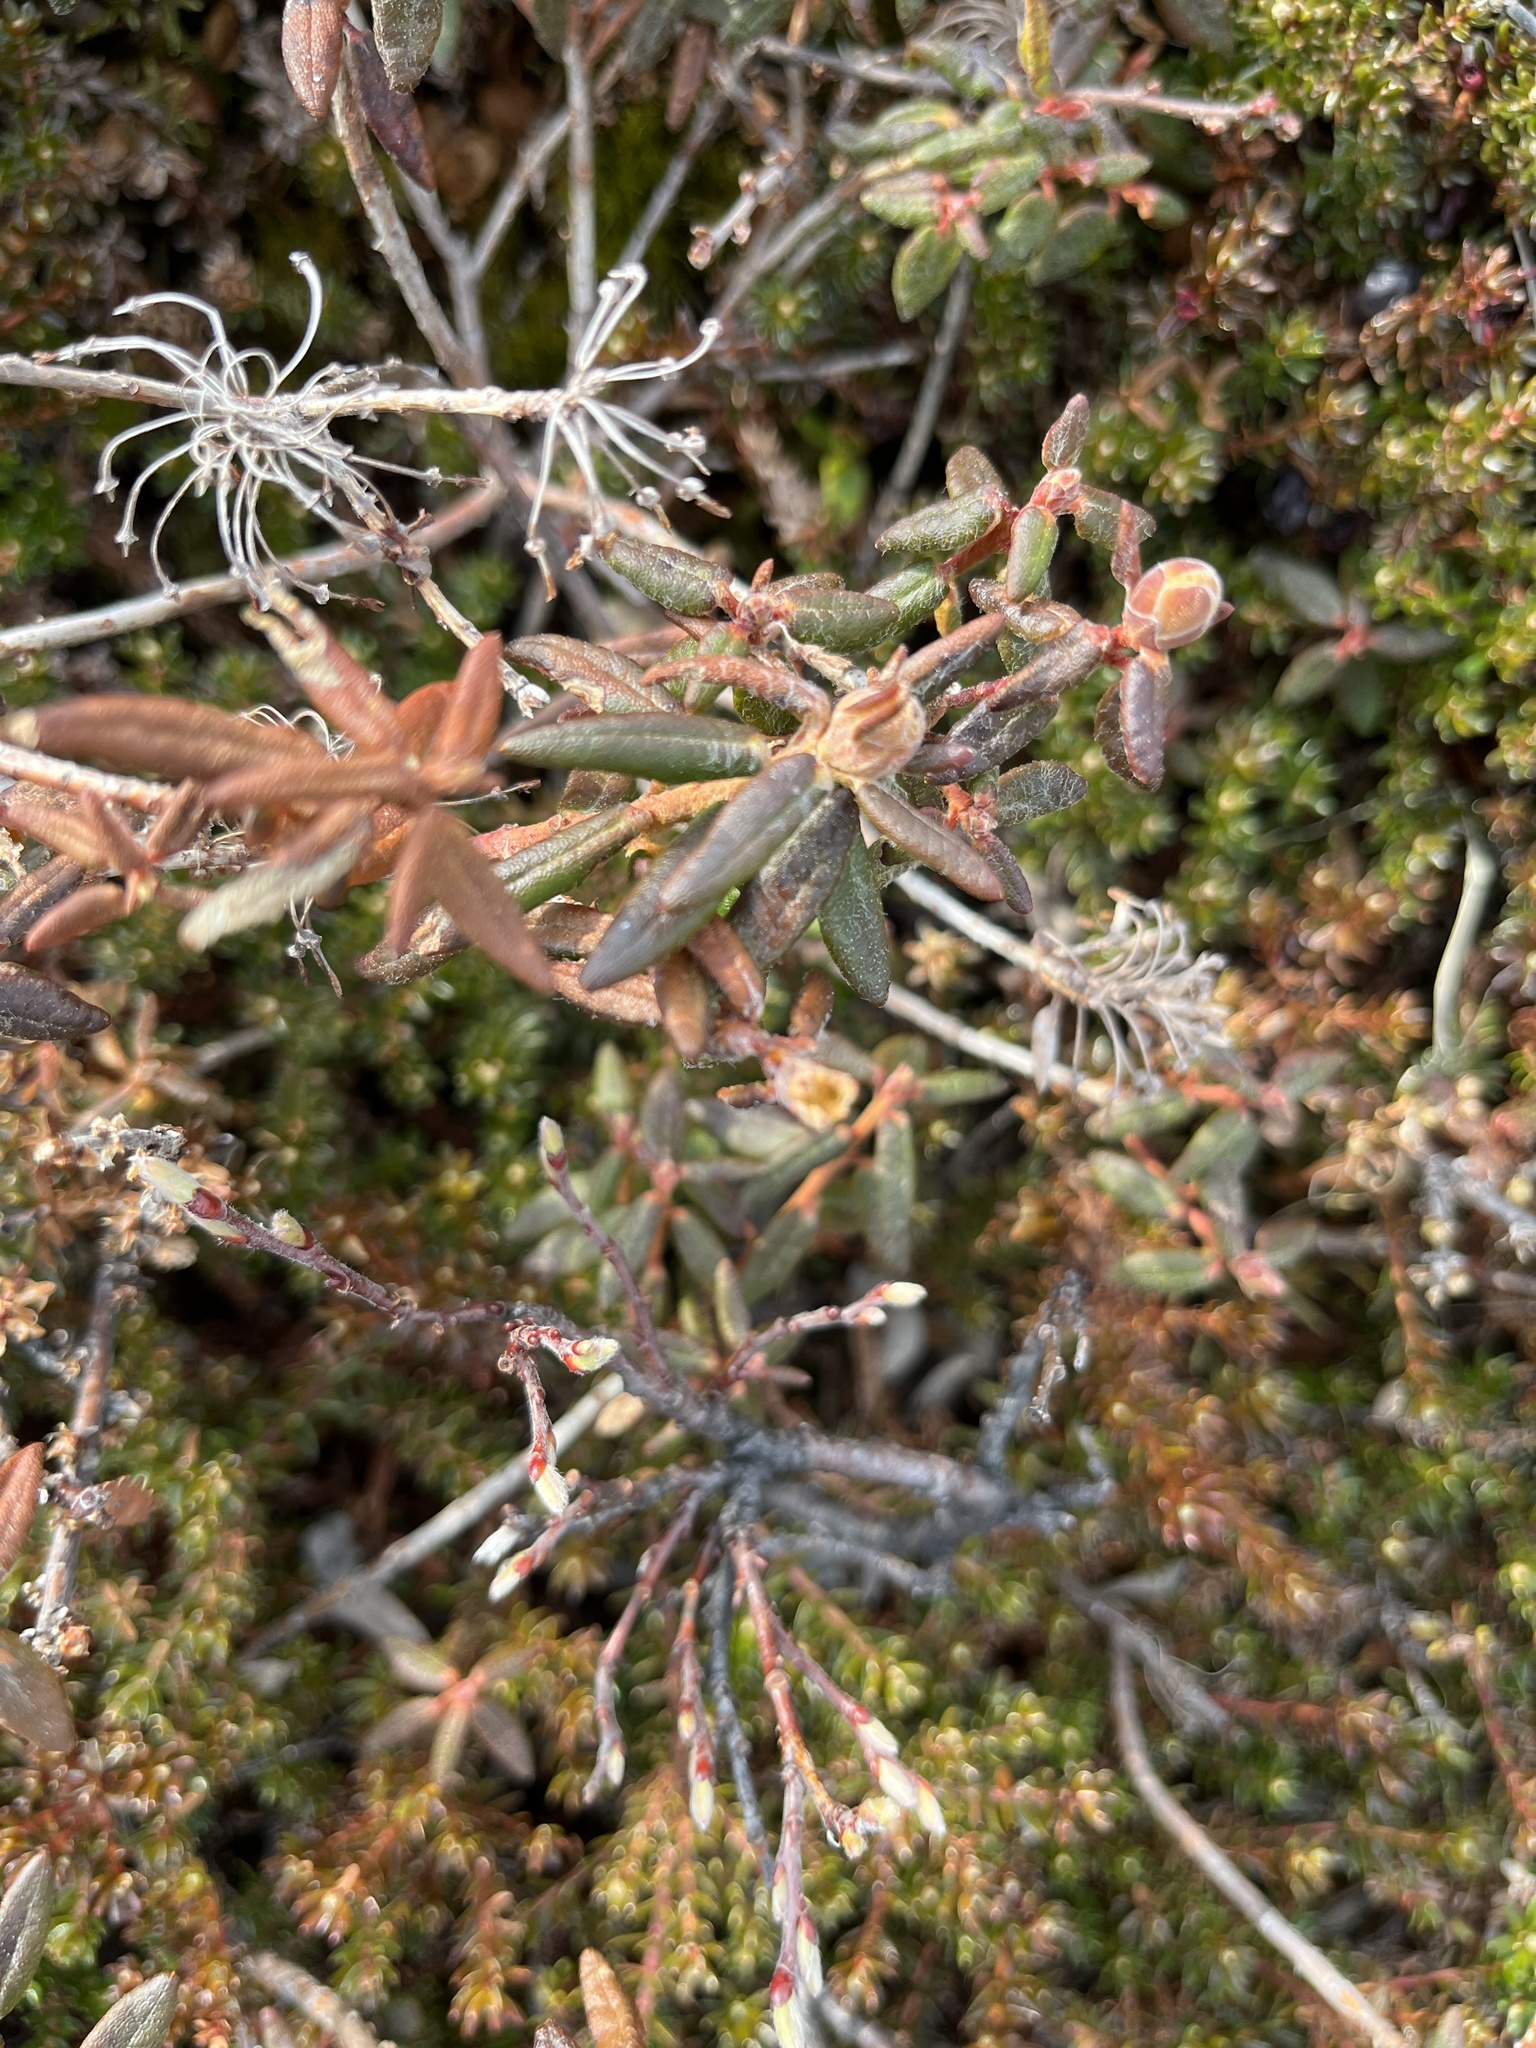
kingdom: Plantae
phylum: Tracheophyta
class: Magnoliopsida
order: Ericales
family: Ericaceae
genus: Rhododendron
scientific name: Rhododendron groenlandicum
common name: Bog labrador tea
